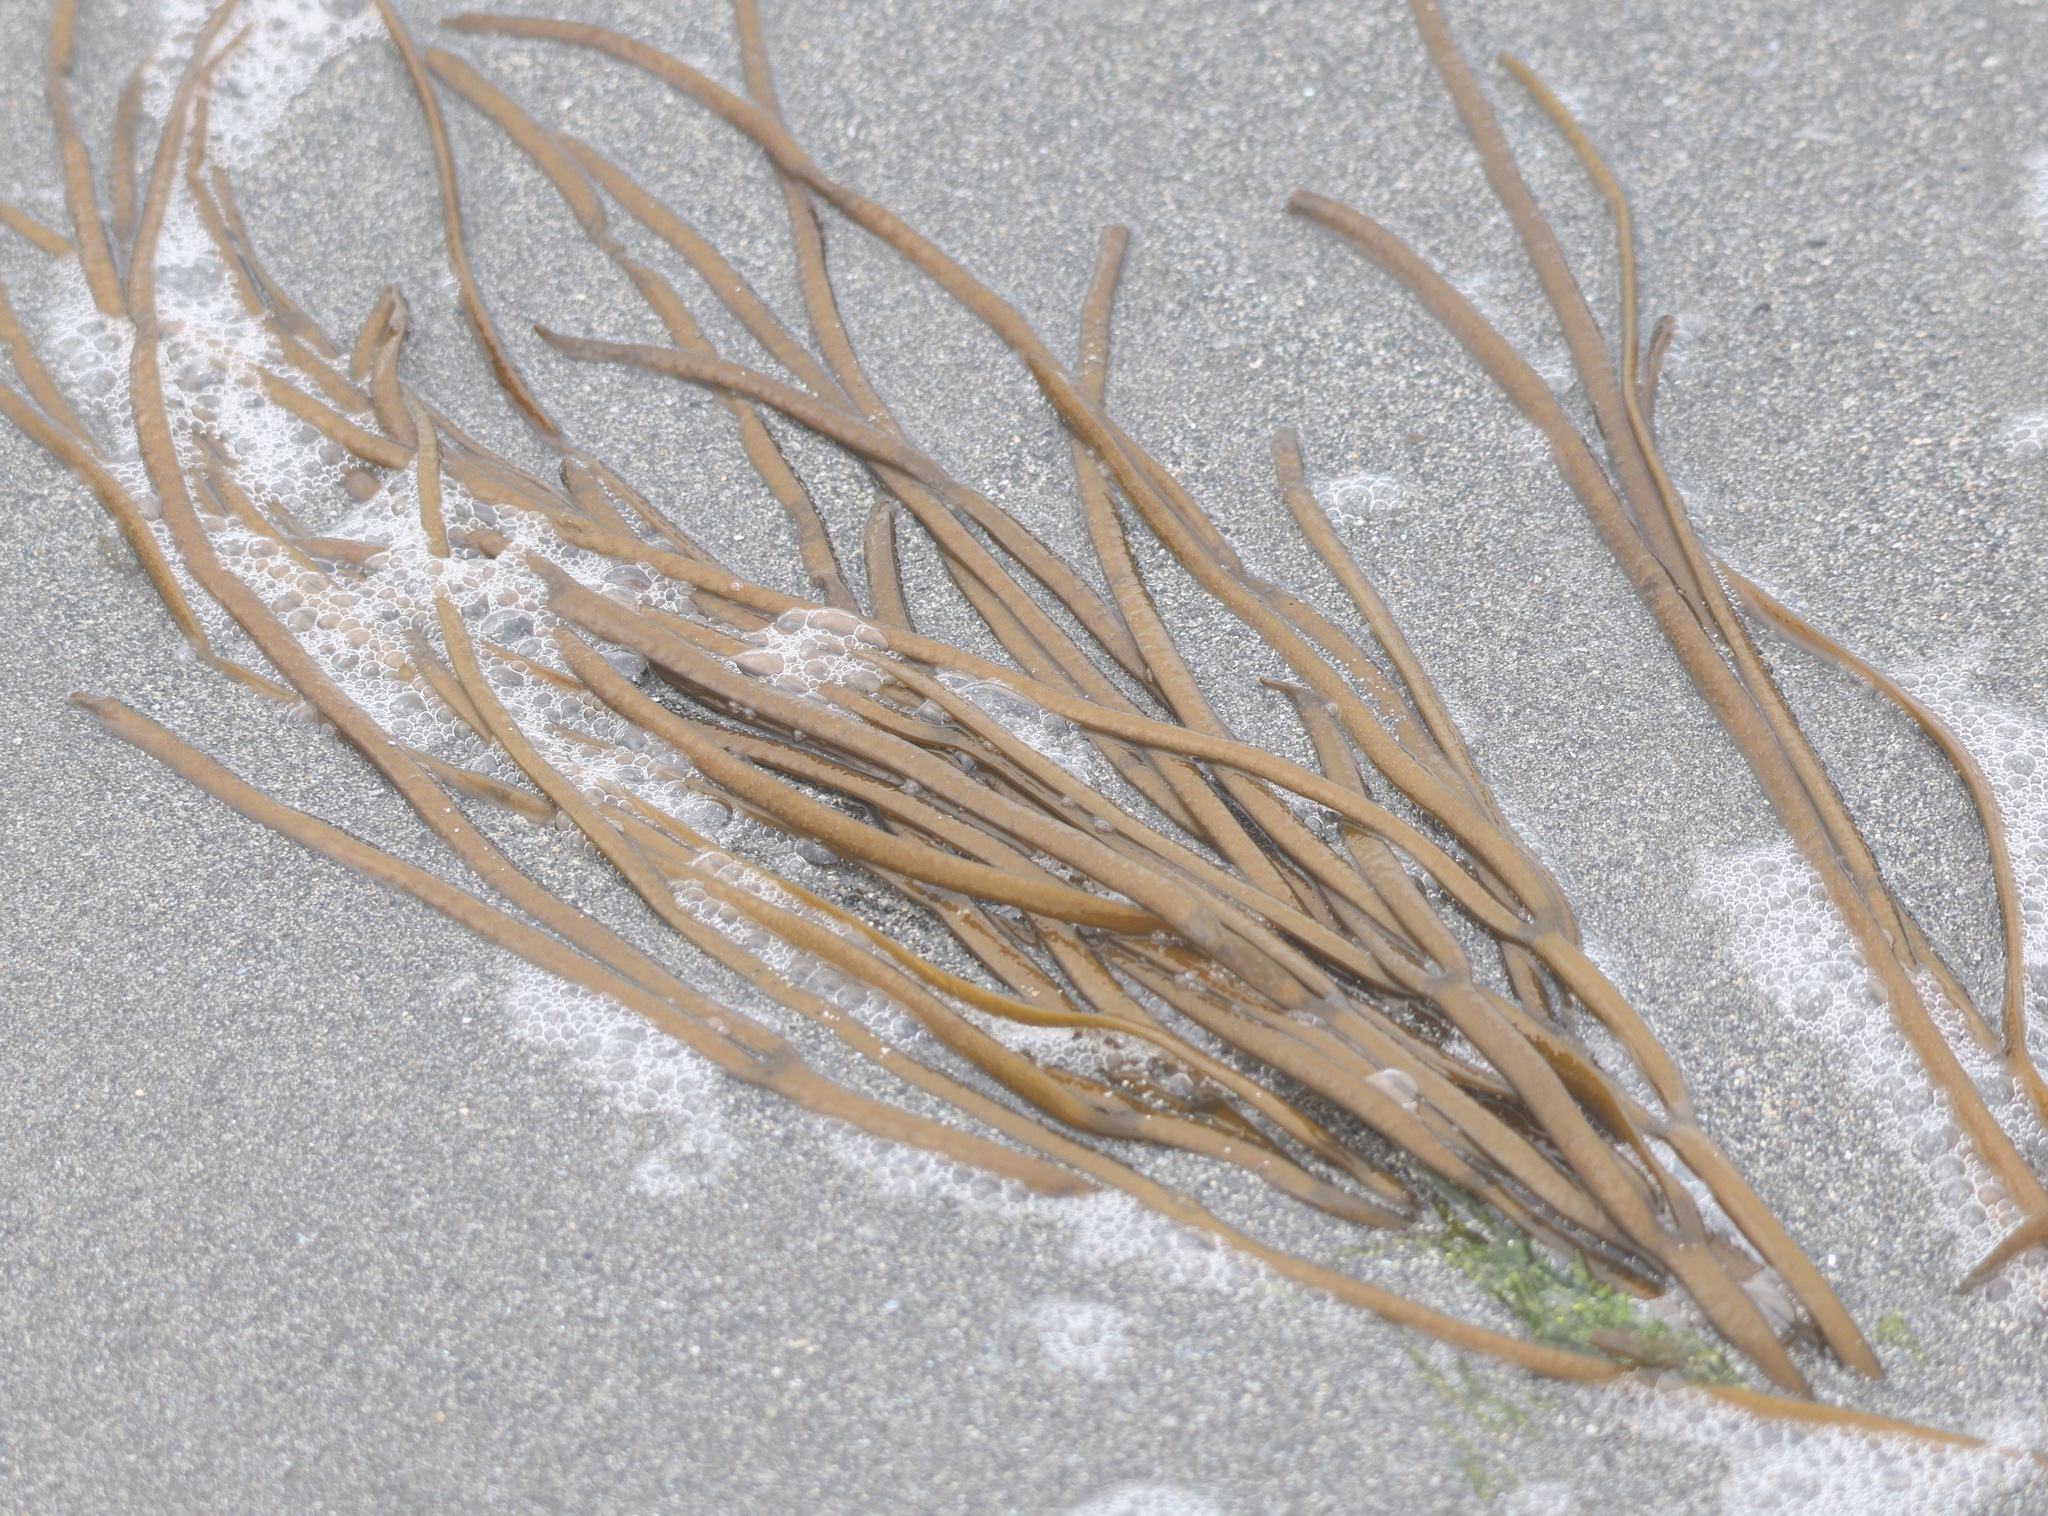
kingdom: Chromista
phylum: Ochrophyta
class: Phaeophyceae
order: Fucales
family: Himanthaliaceae
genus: Himanthalia
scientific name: Himanthalia elongata
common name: Sea-thong
